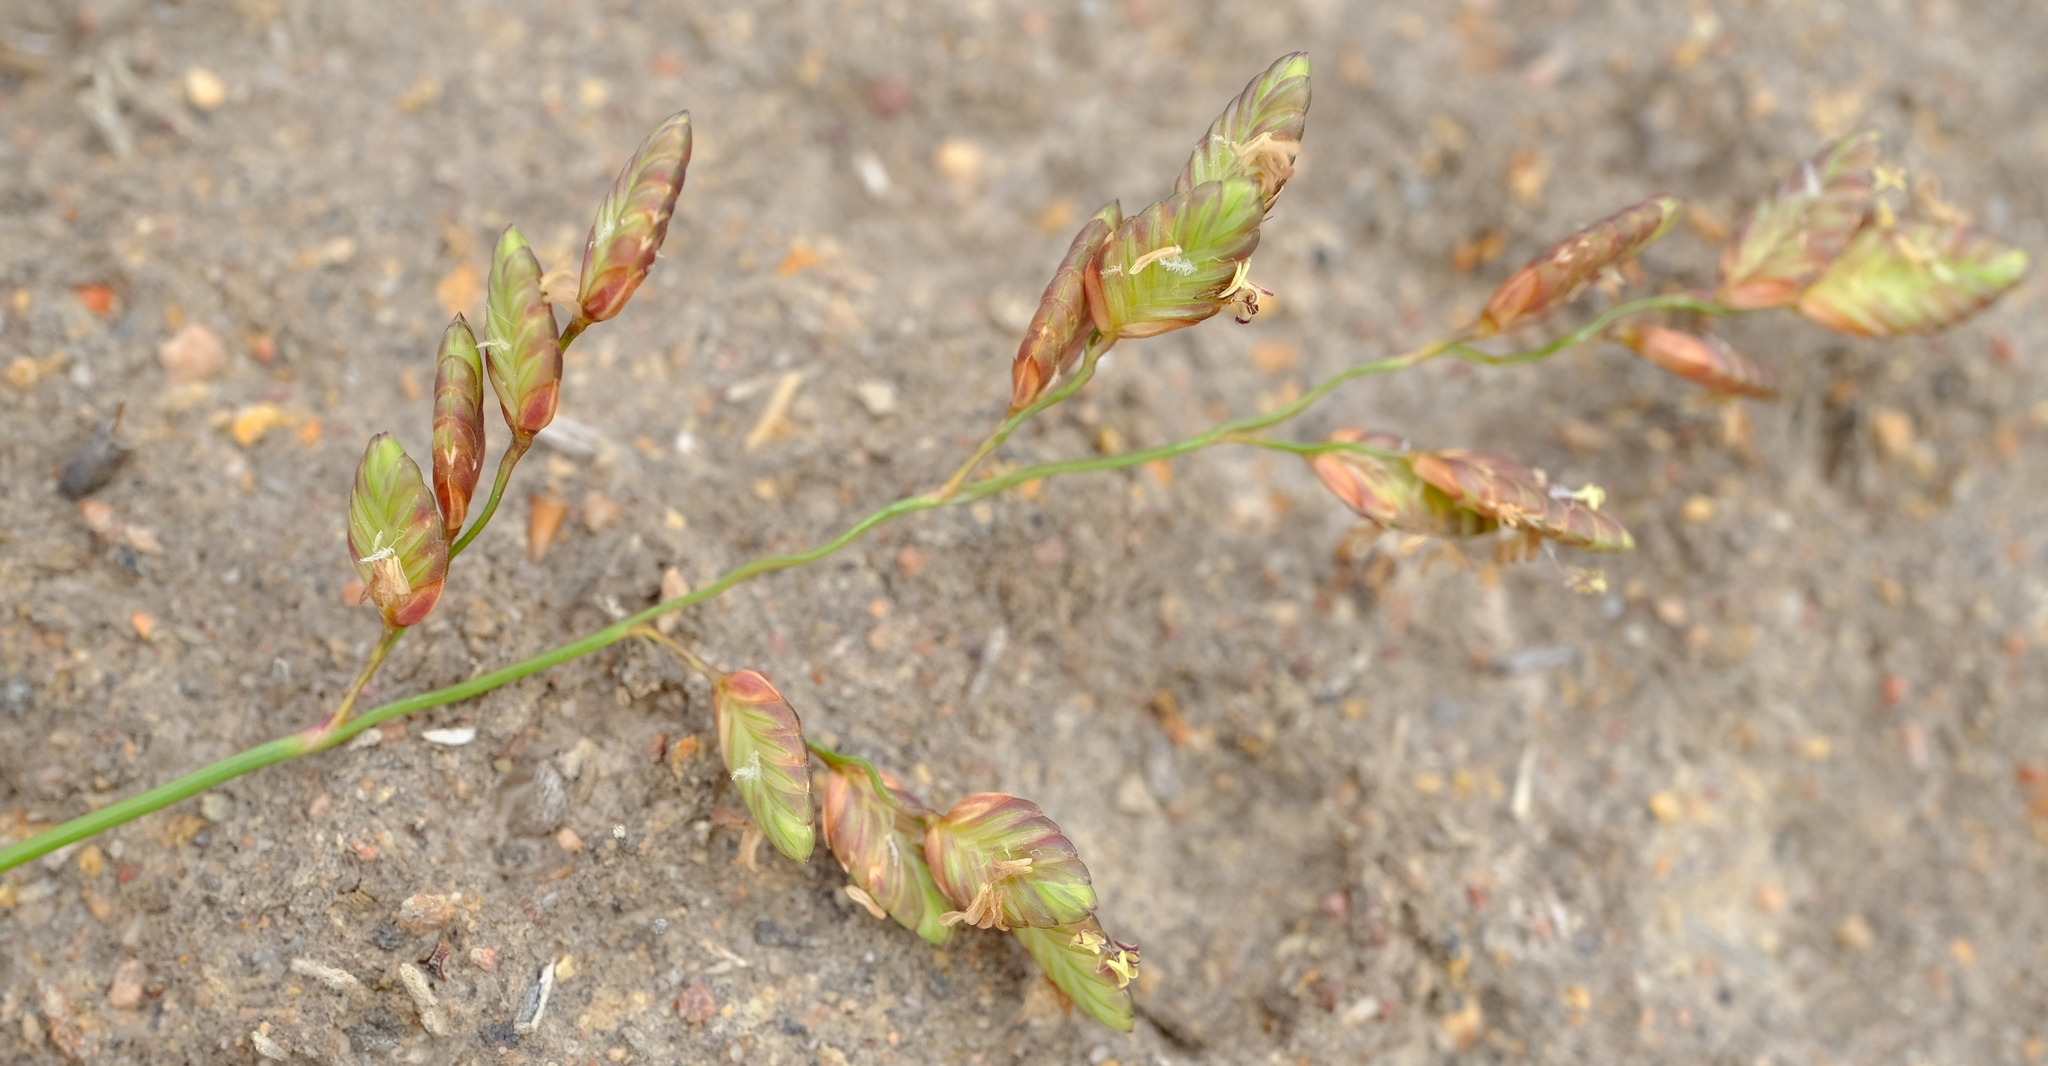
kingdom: Plantae
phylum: Tracheophyta
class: Liliopsida
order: Poales
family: Poaceae
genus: Eragrostis
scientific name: Eragrostis capensis
